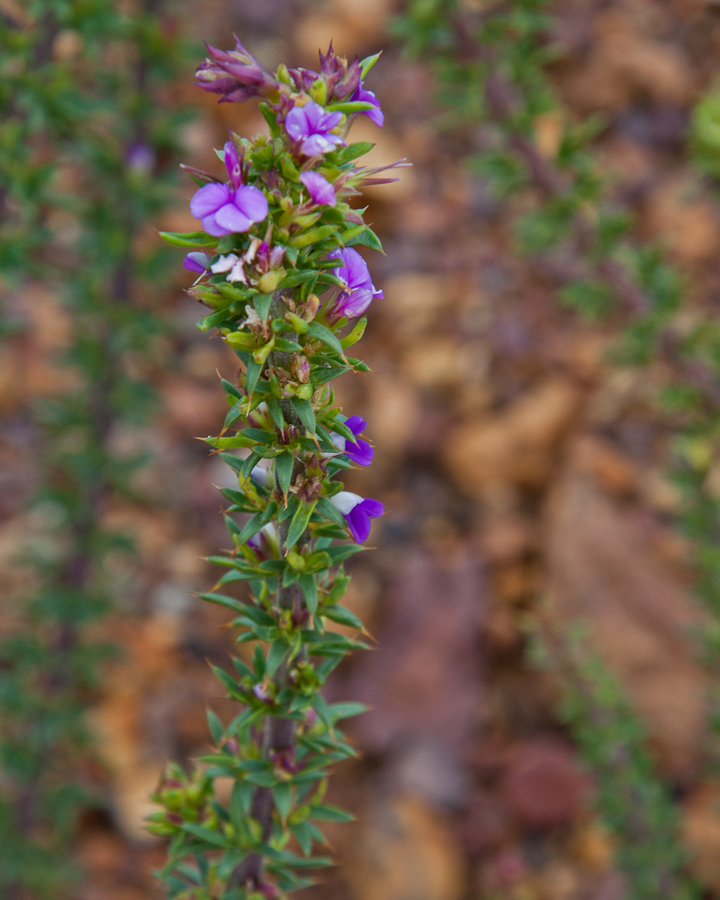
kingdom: Plantae
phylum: Tracheophyta
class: Magnoliopsida
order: Fabales
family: Polygalaceae
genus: Muraltia
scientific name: Muraltia heisteria
